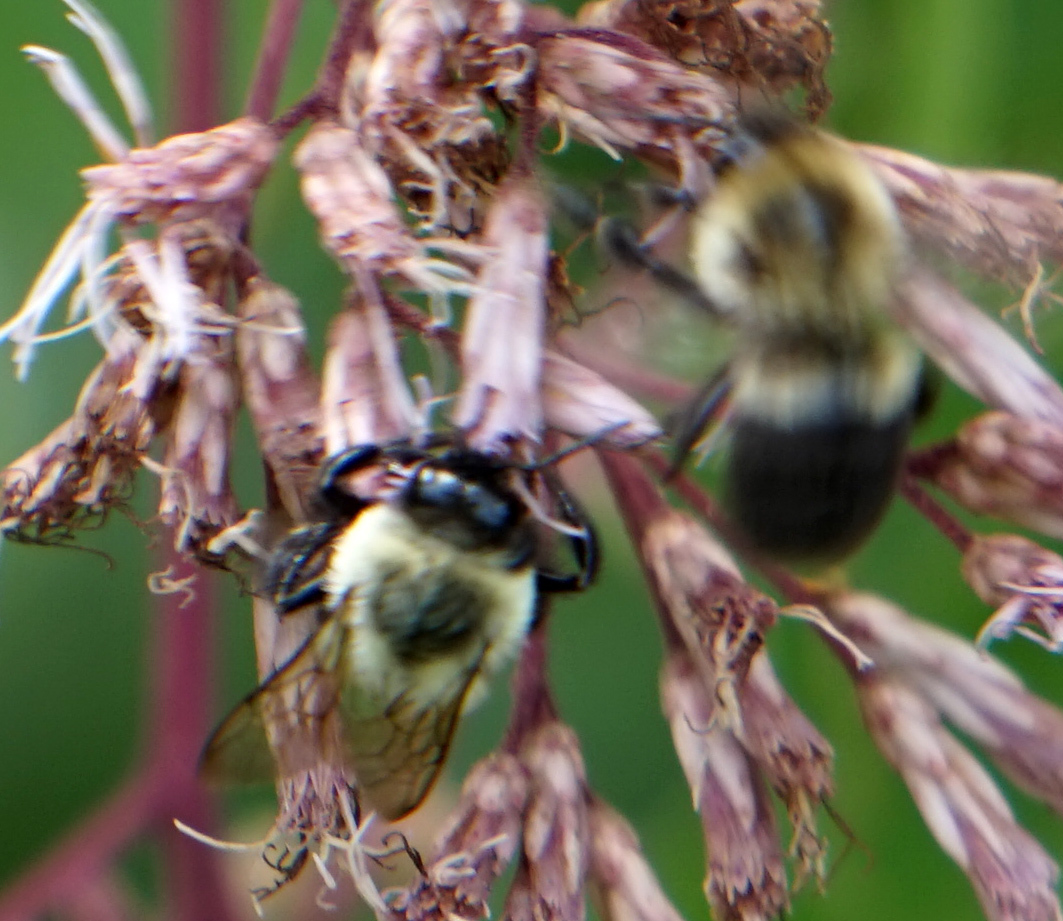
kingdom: Animalia
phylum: Arthropoda
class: Insecta
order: Hymenoptera
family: Apidae
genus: Bombus
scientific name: Bombus impatiens
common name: Common eastern bumble bee
